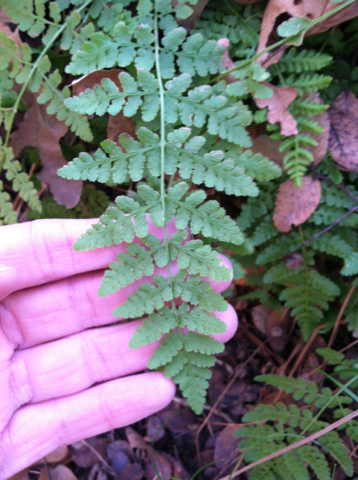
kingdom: Plantae
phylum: Tracheophyta
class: Polypodiopsida
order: Polypodiales
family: Woodsiaceae
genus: Physematium
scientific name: Physematium obtusum
